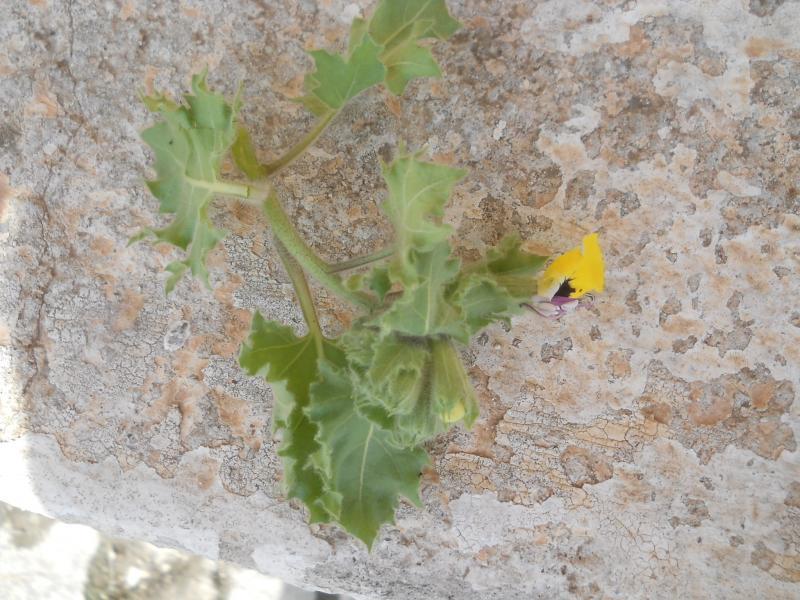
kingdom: Plantae
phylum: Tracheophyta
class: Magnoliopsida
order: Solanales
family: Solanaceae
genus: Hyoscyamus
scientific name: Hyoscyamus aureus
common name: Golden henbane
